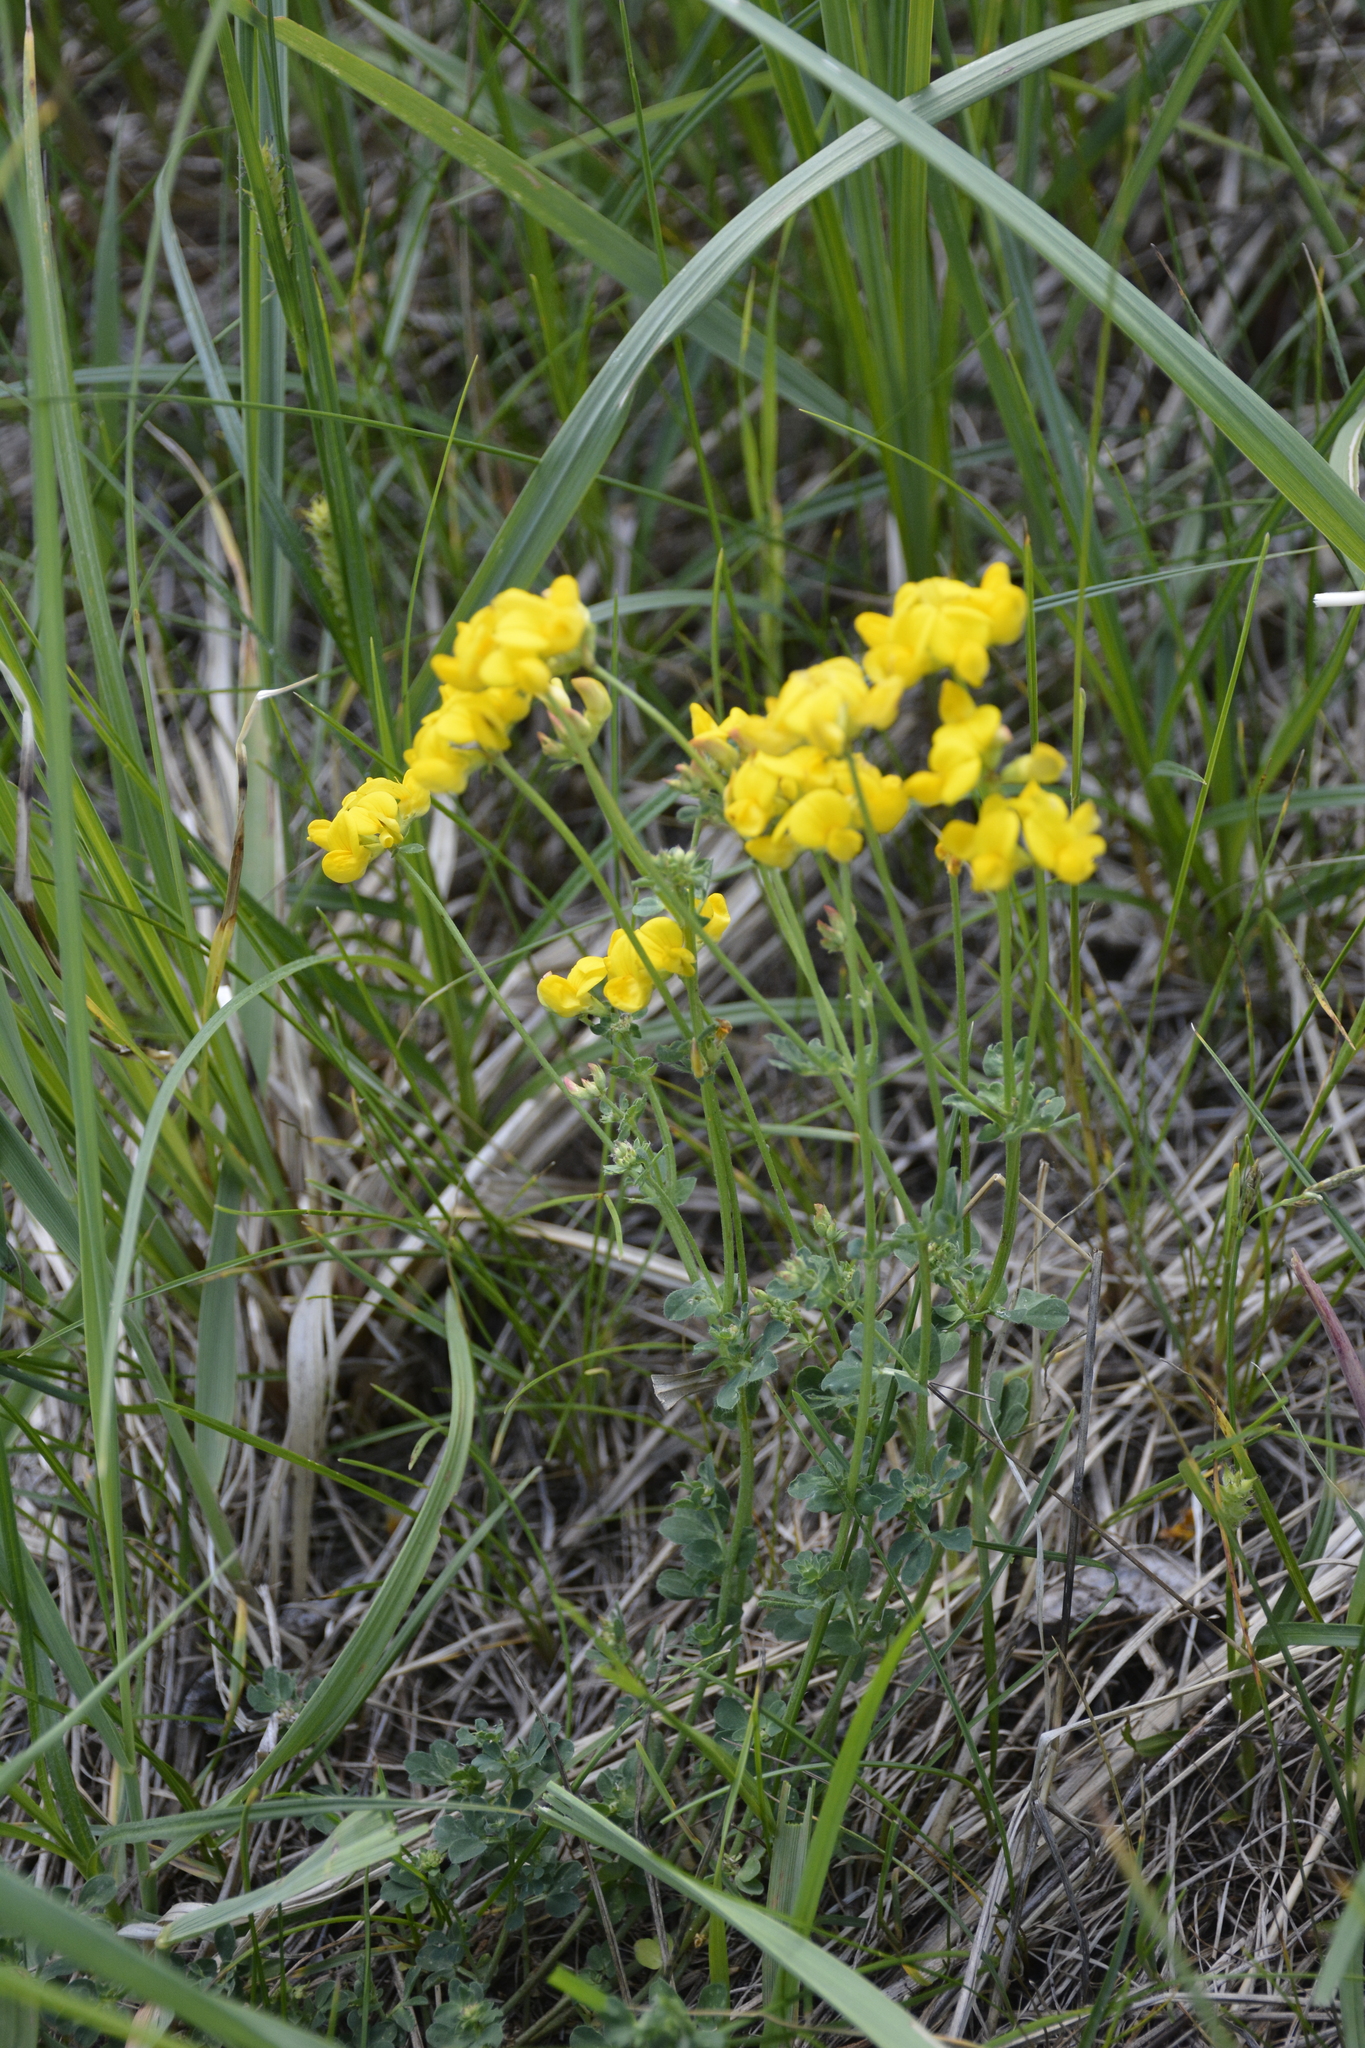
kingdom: Plantae
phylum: Tracheophyta
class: Magnoliopsida
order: Fabales
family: Fabaceae
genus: Lotus
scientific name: Lotus corniculatus
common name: Common bird's-foot-trefoil
